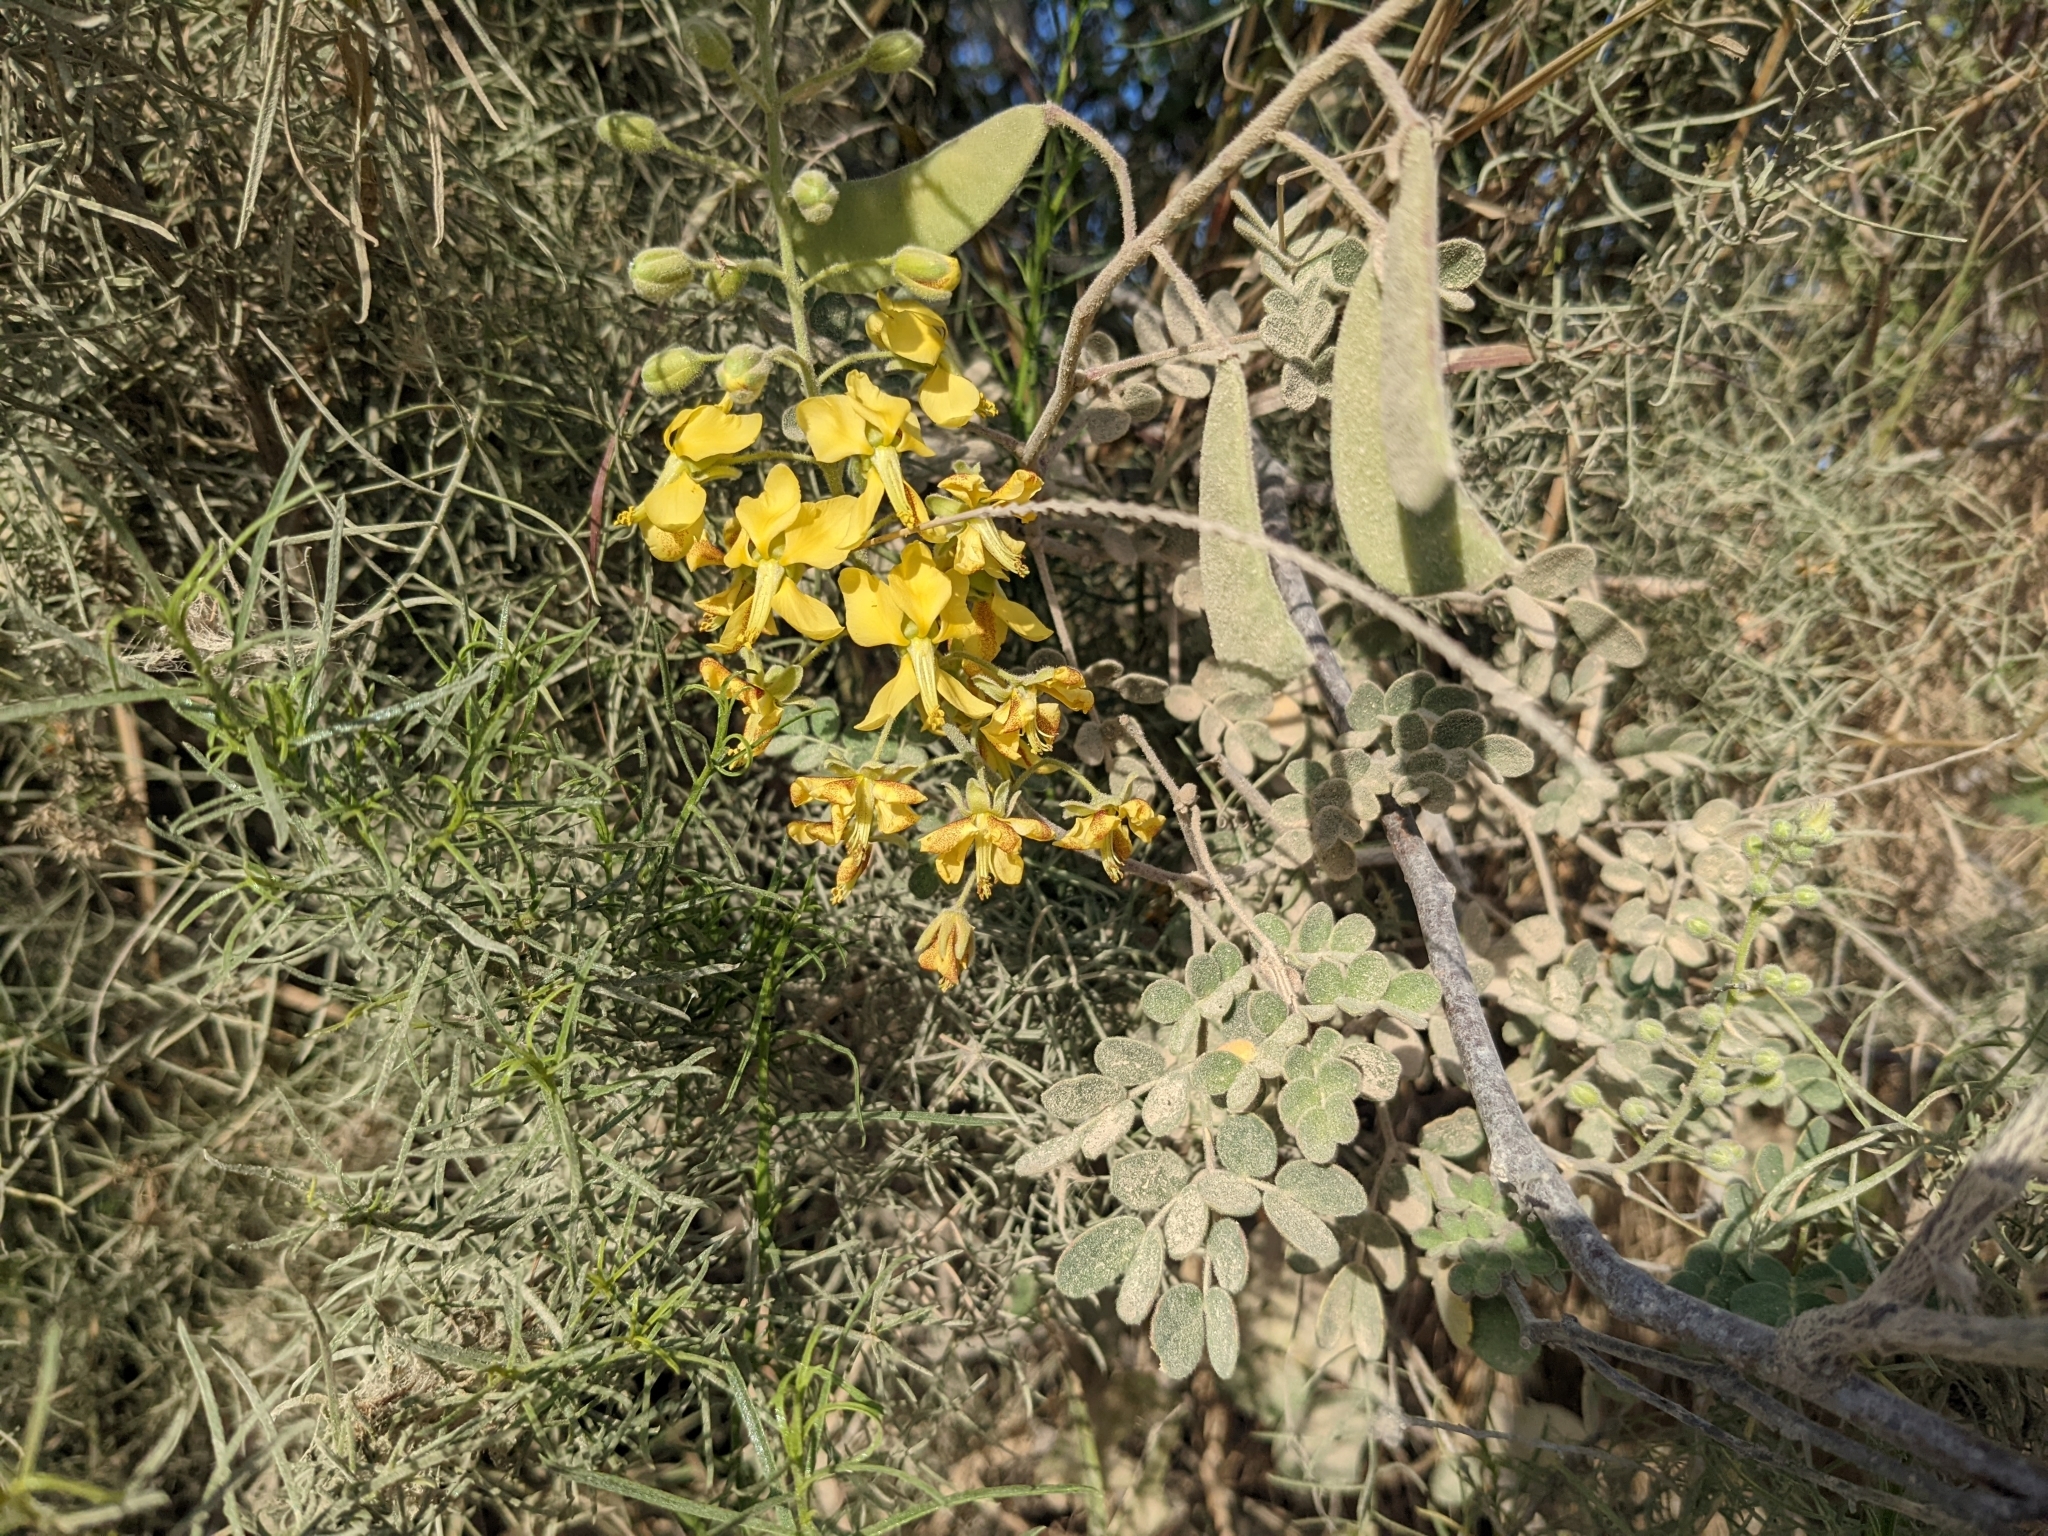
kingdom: Plantae
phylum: Tracheophyta
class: Magnoliopsida
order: Fabales
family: Fabaceae
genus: Erythrostemon
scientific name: Erythrostemon pannosus
